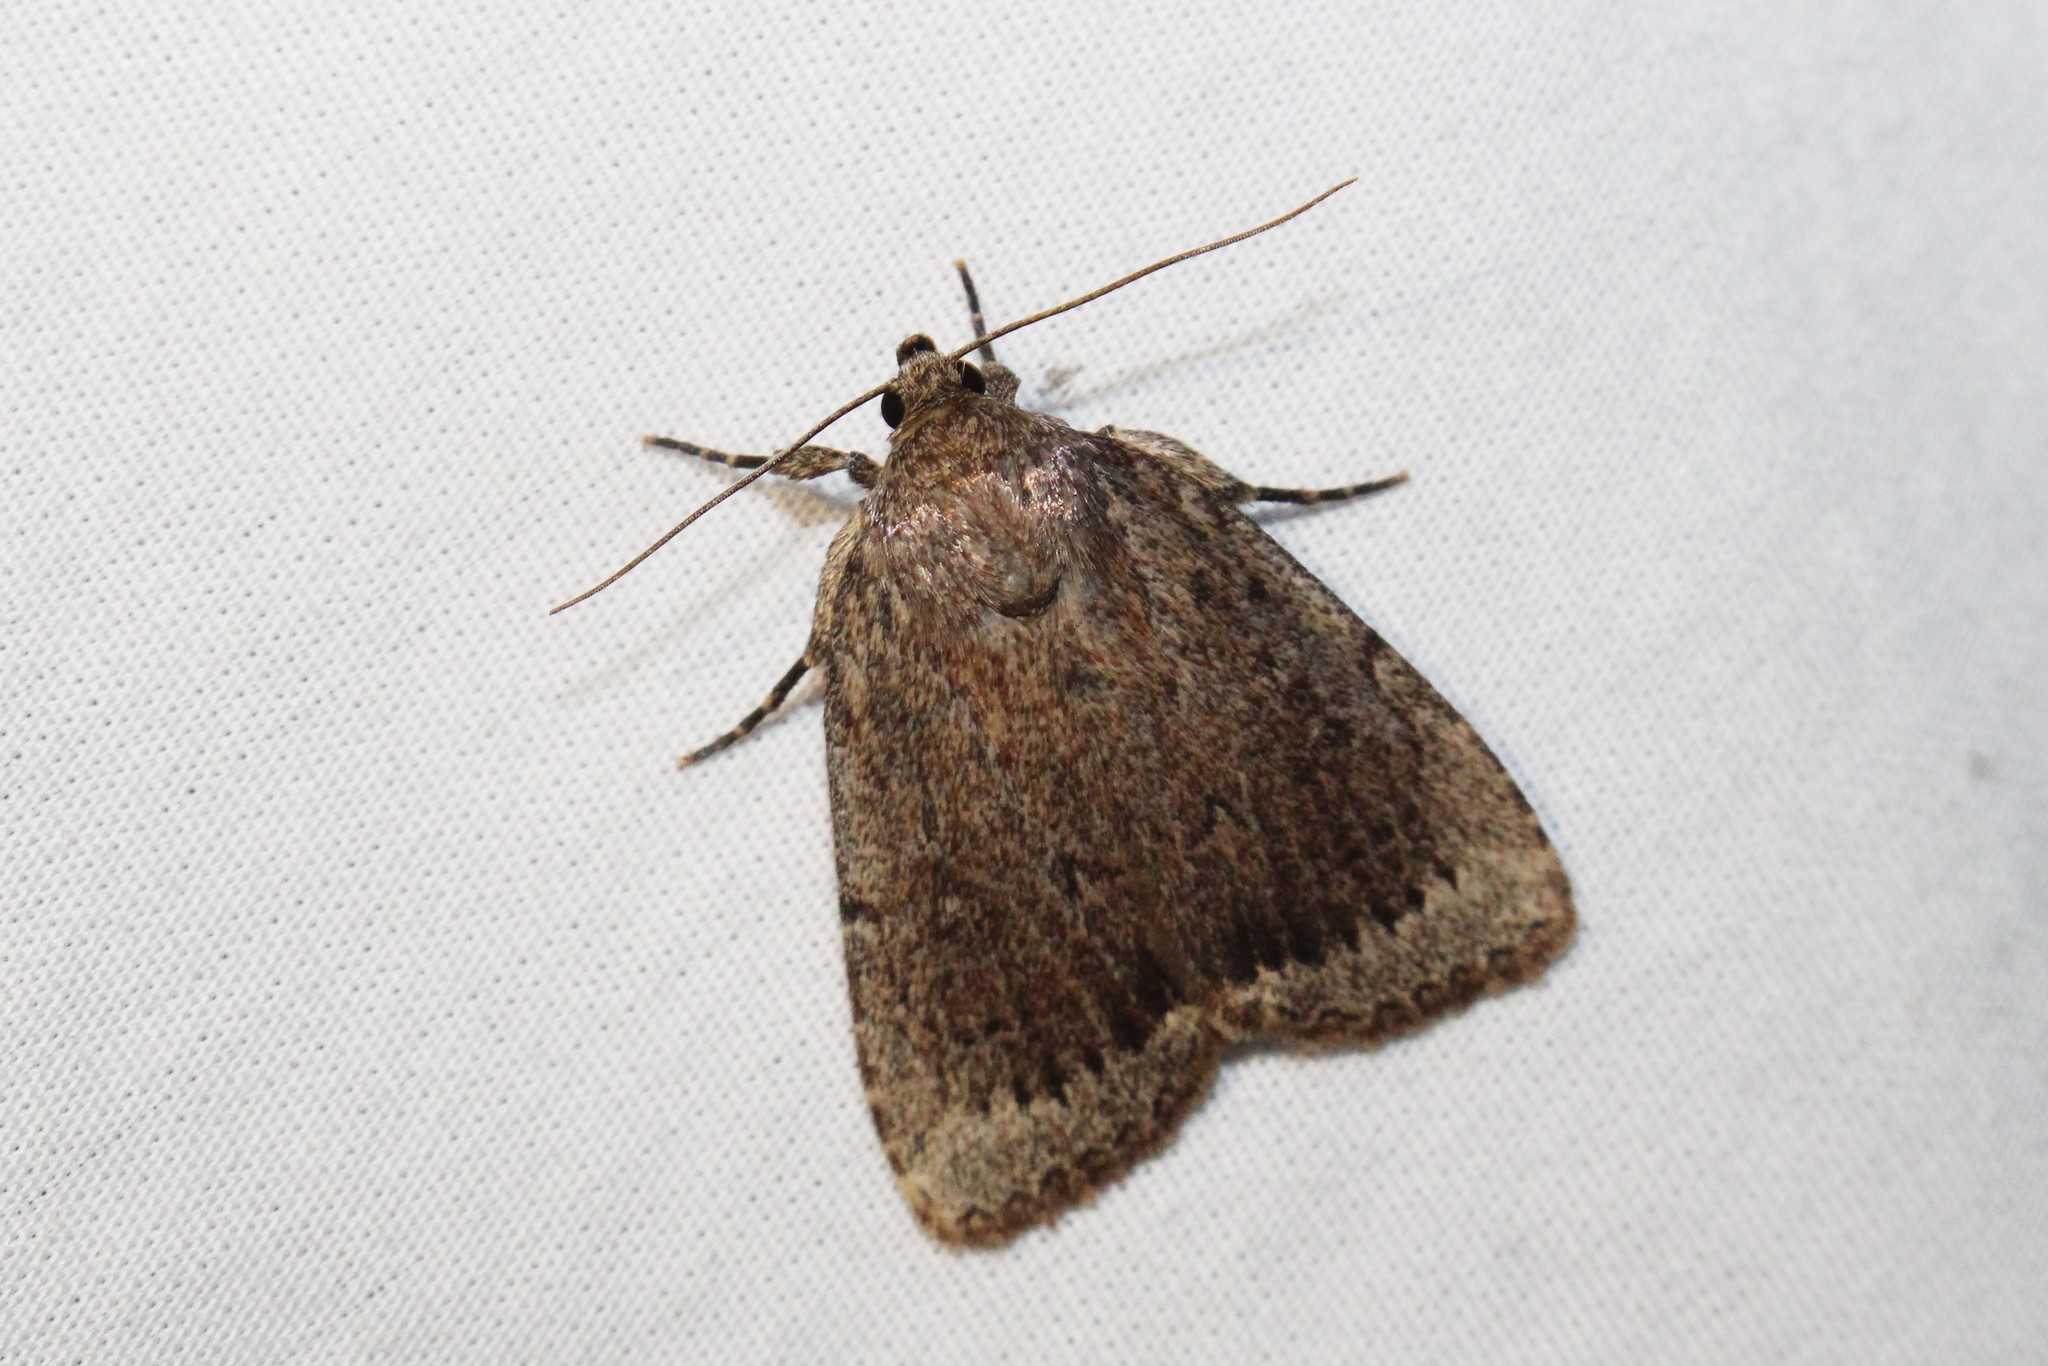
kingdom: Animalia
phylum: Arthropoda
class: Insecta
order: Lepidoptera
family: Noctuidae
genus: Amphipyra
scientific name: Amphipyra glabella
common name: Smooth amphipyra moth
